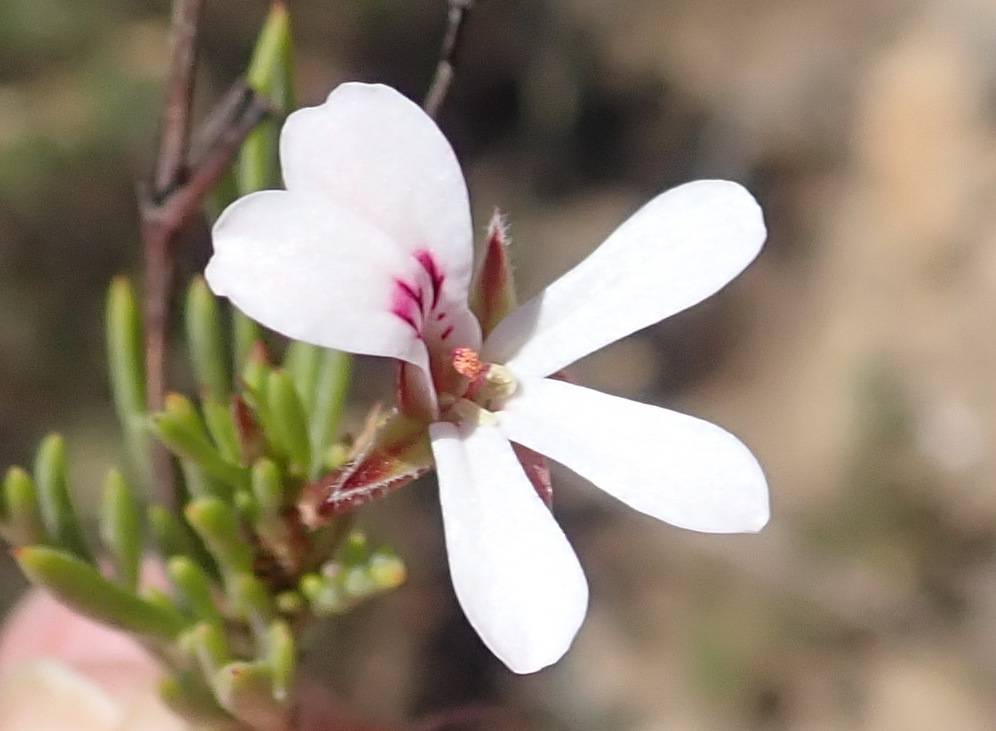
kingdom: Plantae
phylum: Tracheophyta
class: Magnoliopsida
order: Geraniales
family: Geraniaceae
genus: Pelargonium
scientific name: Pelargonium laevigatum
